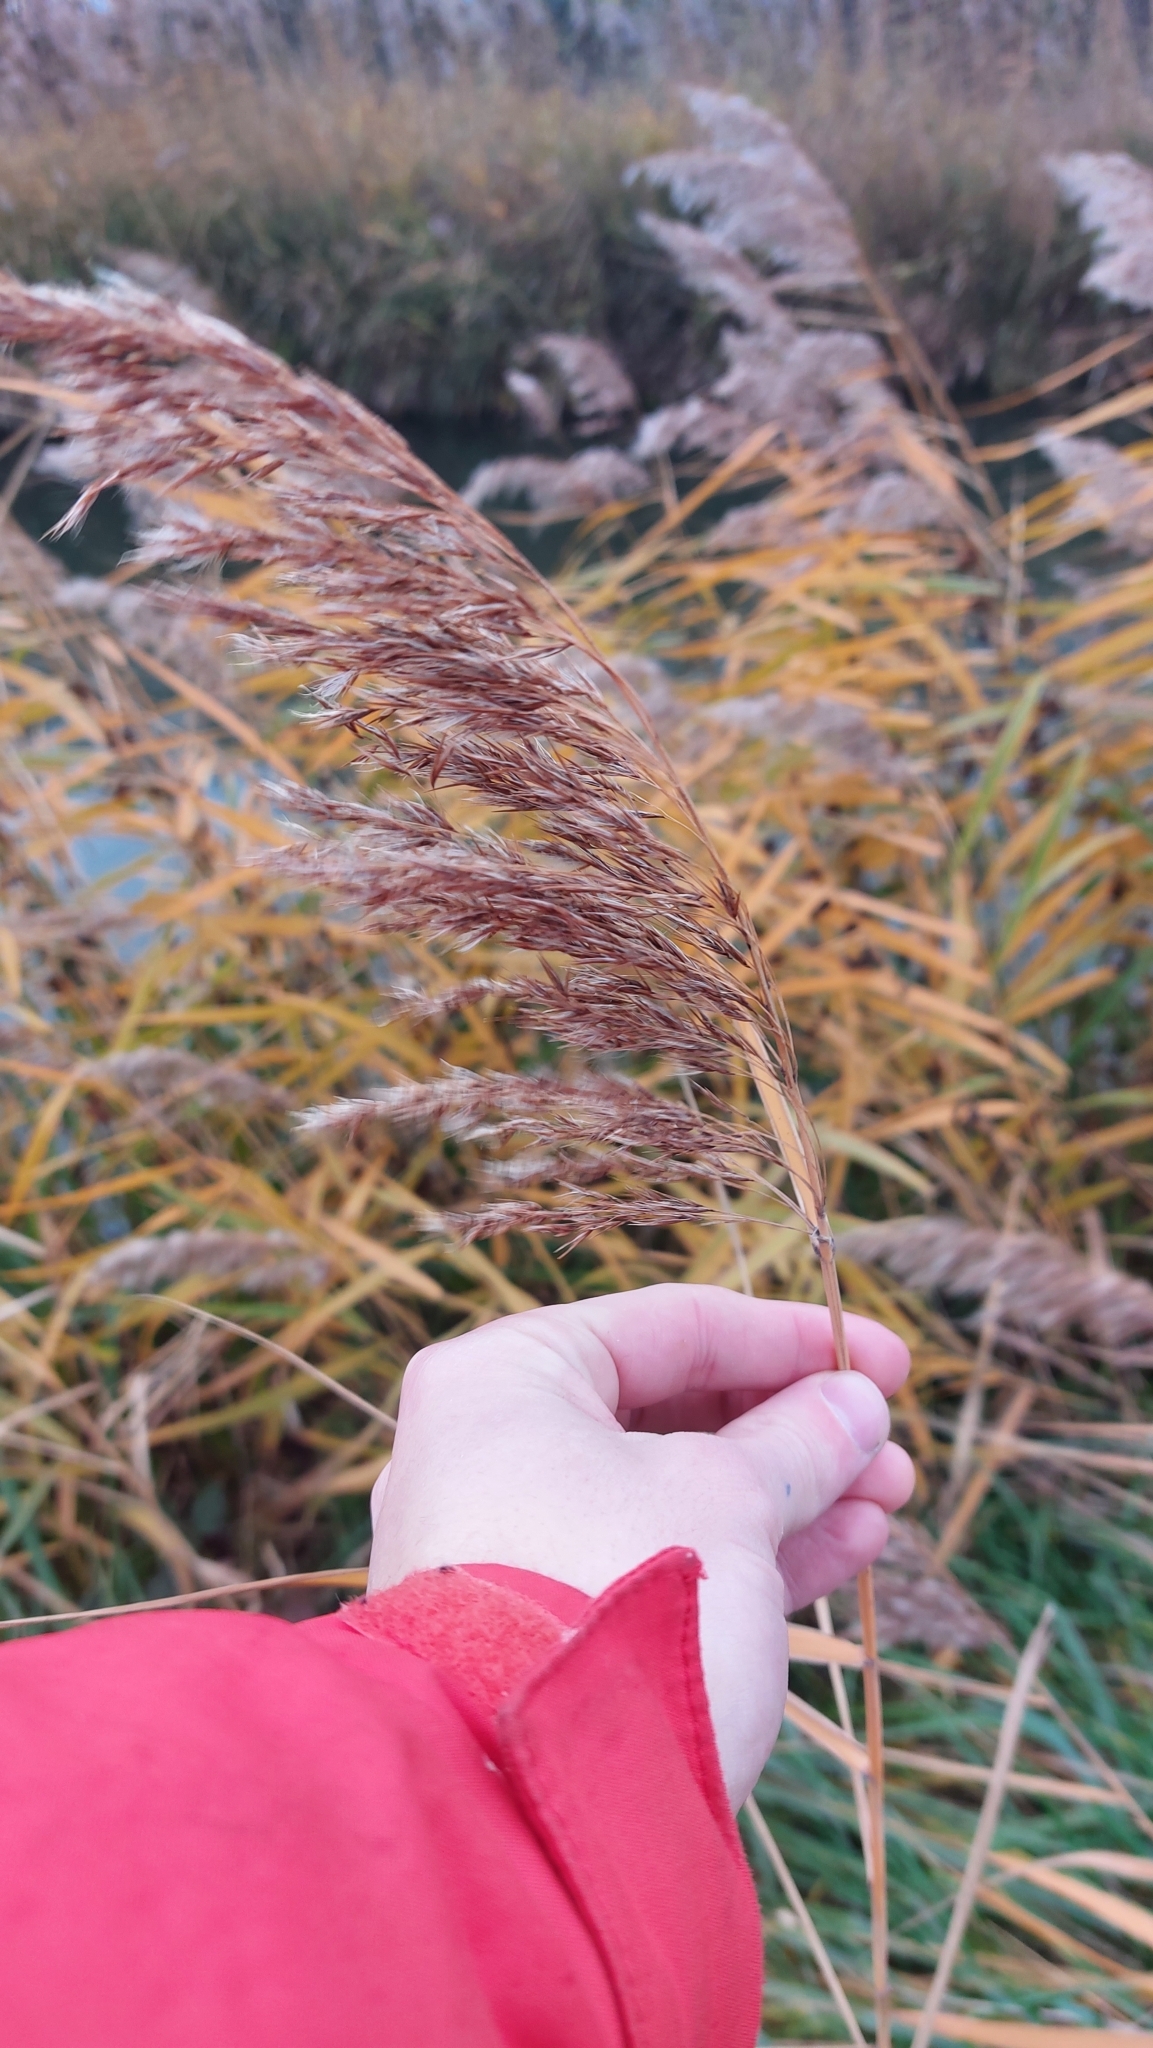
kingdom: Plantae
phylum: Tracheophyta
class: Liliopsida
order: Poales
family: Poaceae
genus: Phragmites
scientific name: Phragmites australis
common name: Common reed
